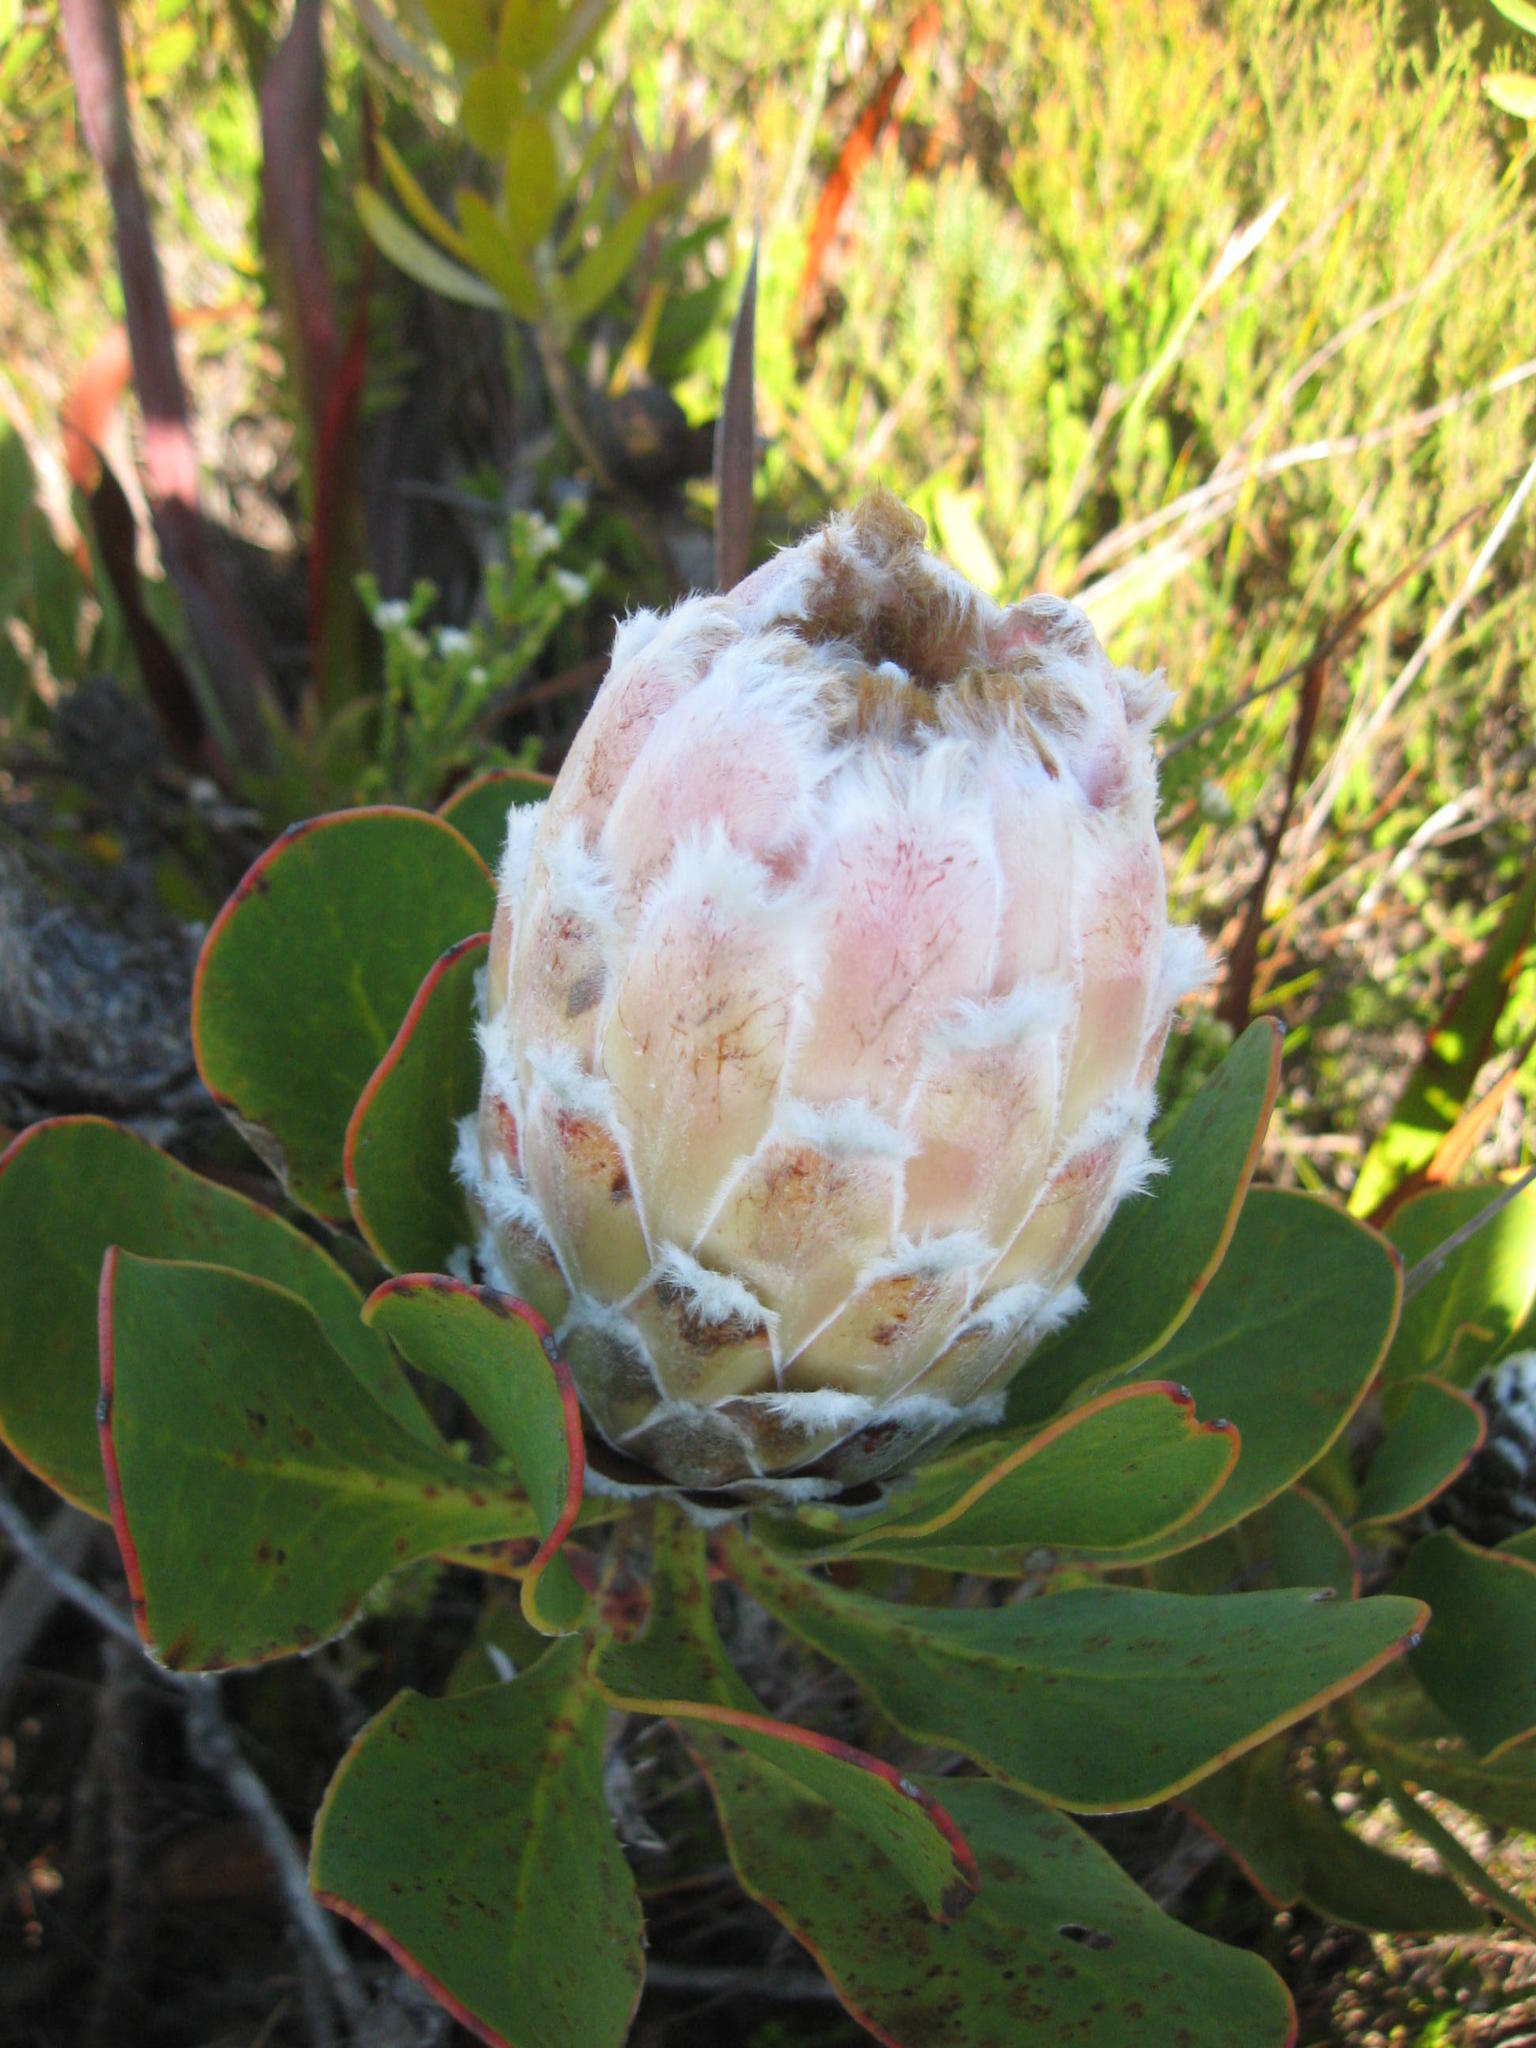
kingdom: Plantae
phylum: Tracheophyta
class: Magnoliopsida
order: Proteales
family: Proteaceae
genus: Protea
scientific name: Protea speciosa
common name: Brown-beard sugarbush
